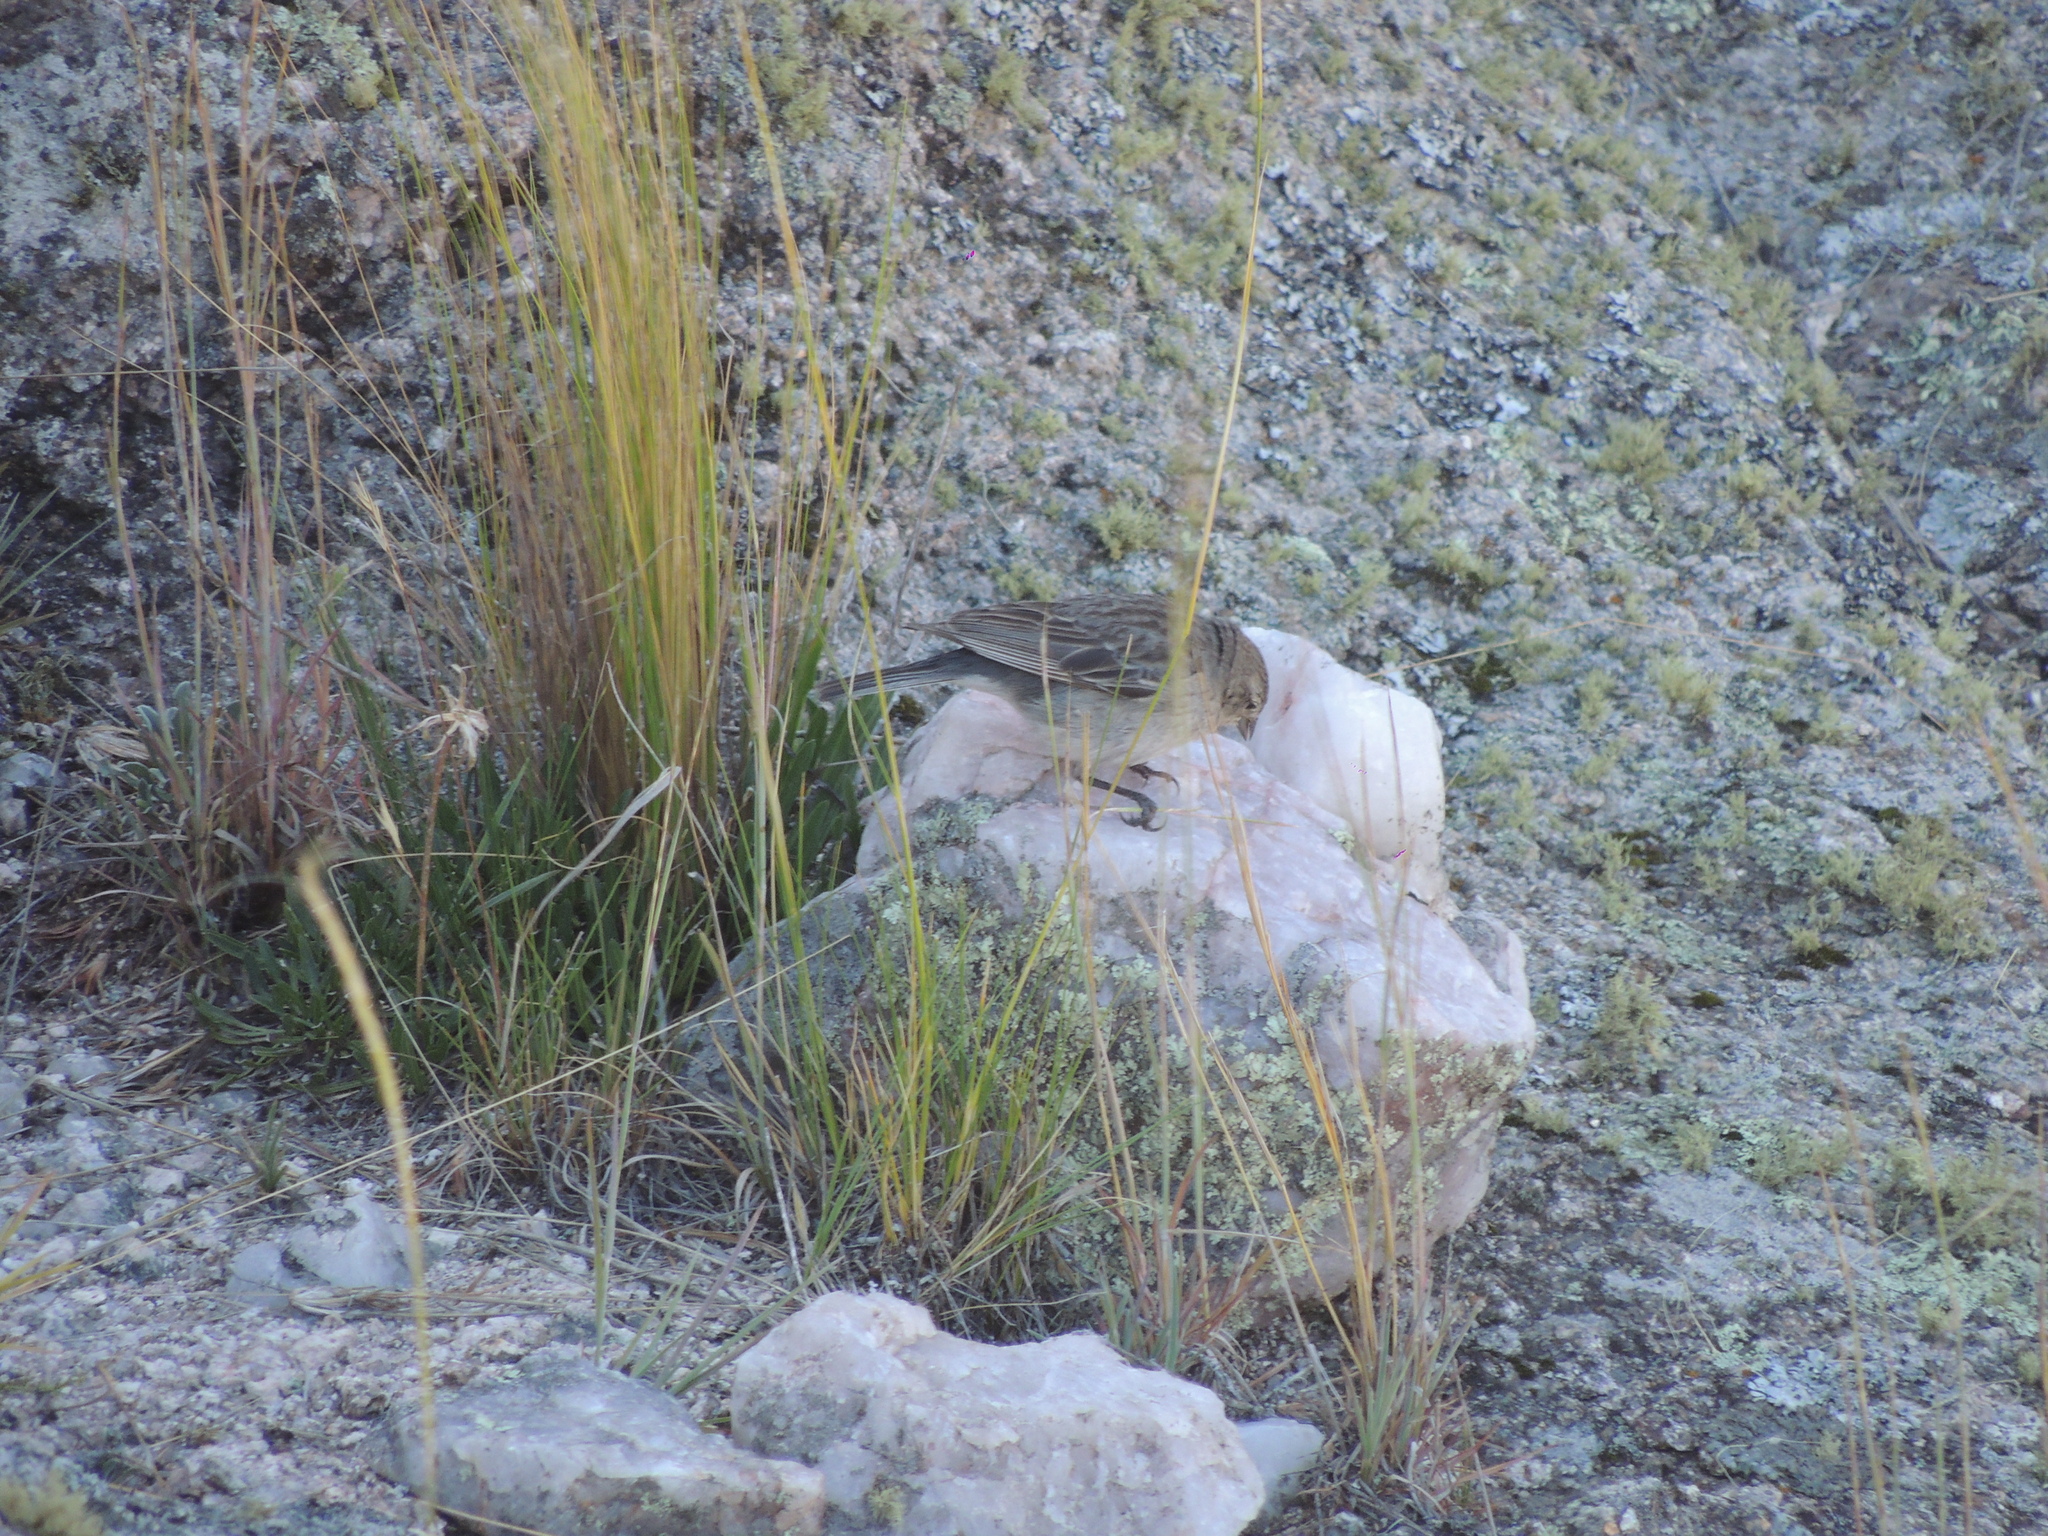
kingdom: Animalia
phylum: Chordata
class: Aves
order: Passeriformes
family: Thraupidae
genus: Geospizopsis
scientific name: Geospizopsis plebejus
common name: Ash-breasted sierra-finch
